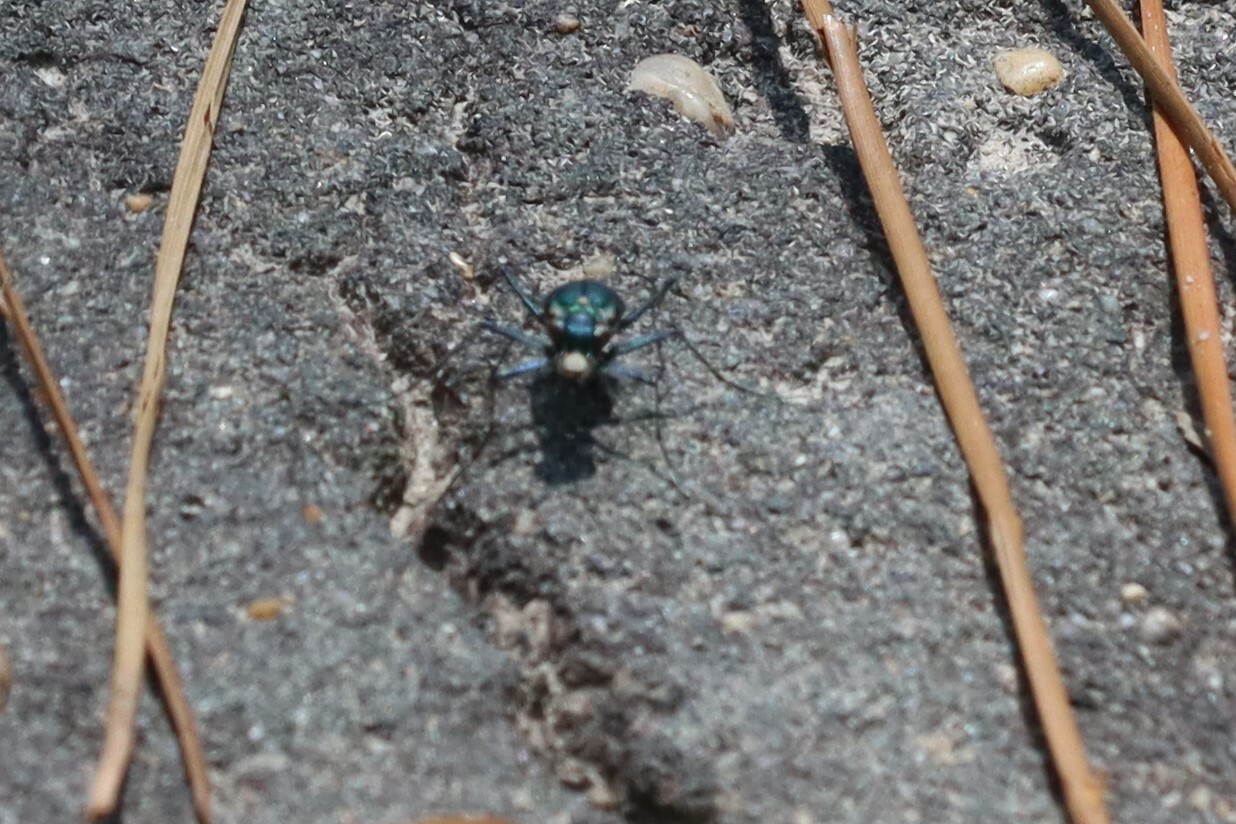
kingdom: Animalia
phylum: Arthropoda
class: Insecta
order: Coleoptera
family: Carabidae
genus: Cicindela
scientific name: Cicindela rufiventris
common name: Eastern red-bellied tiger beetle
